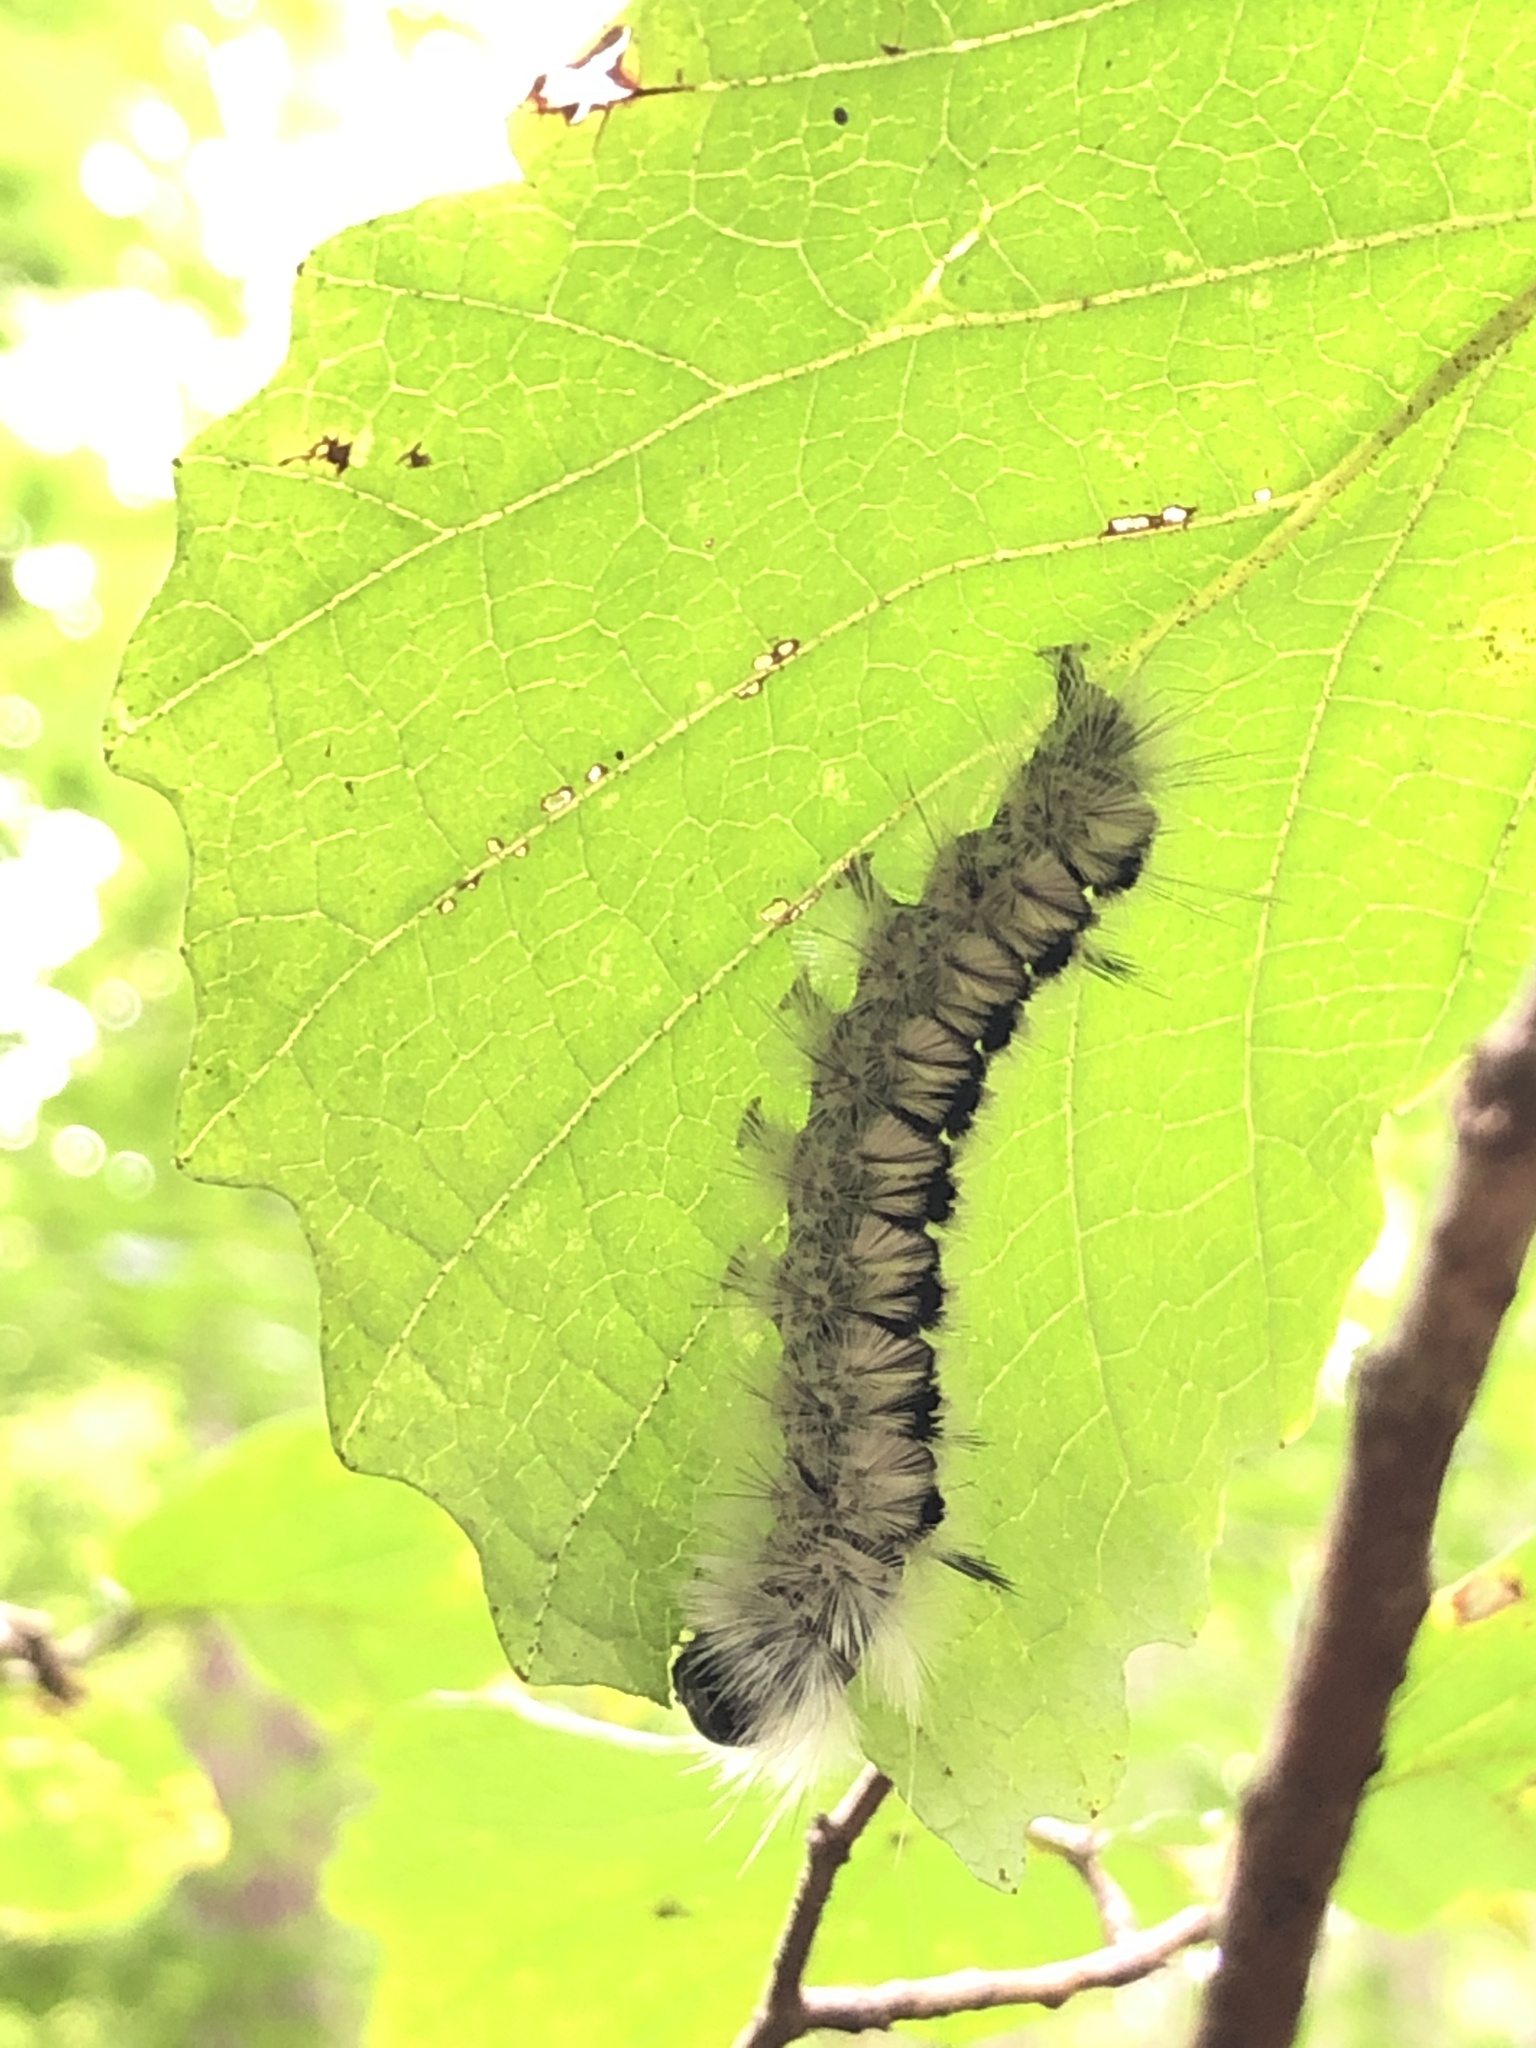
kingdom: Animalia
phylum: Arthropoda
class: Insecta
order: Lepidoptera
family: Erebidae
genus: Lophocampa
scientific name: Lophocampa caryae
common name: Hickory tussock moth
